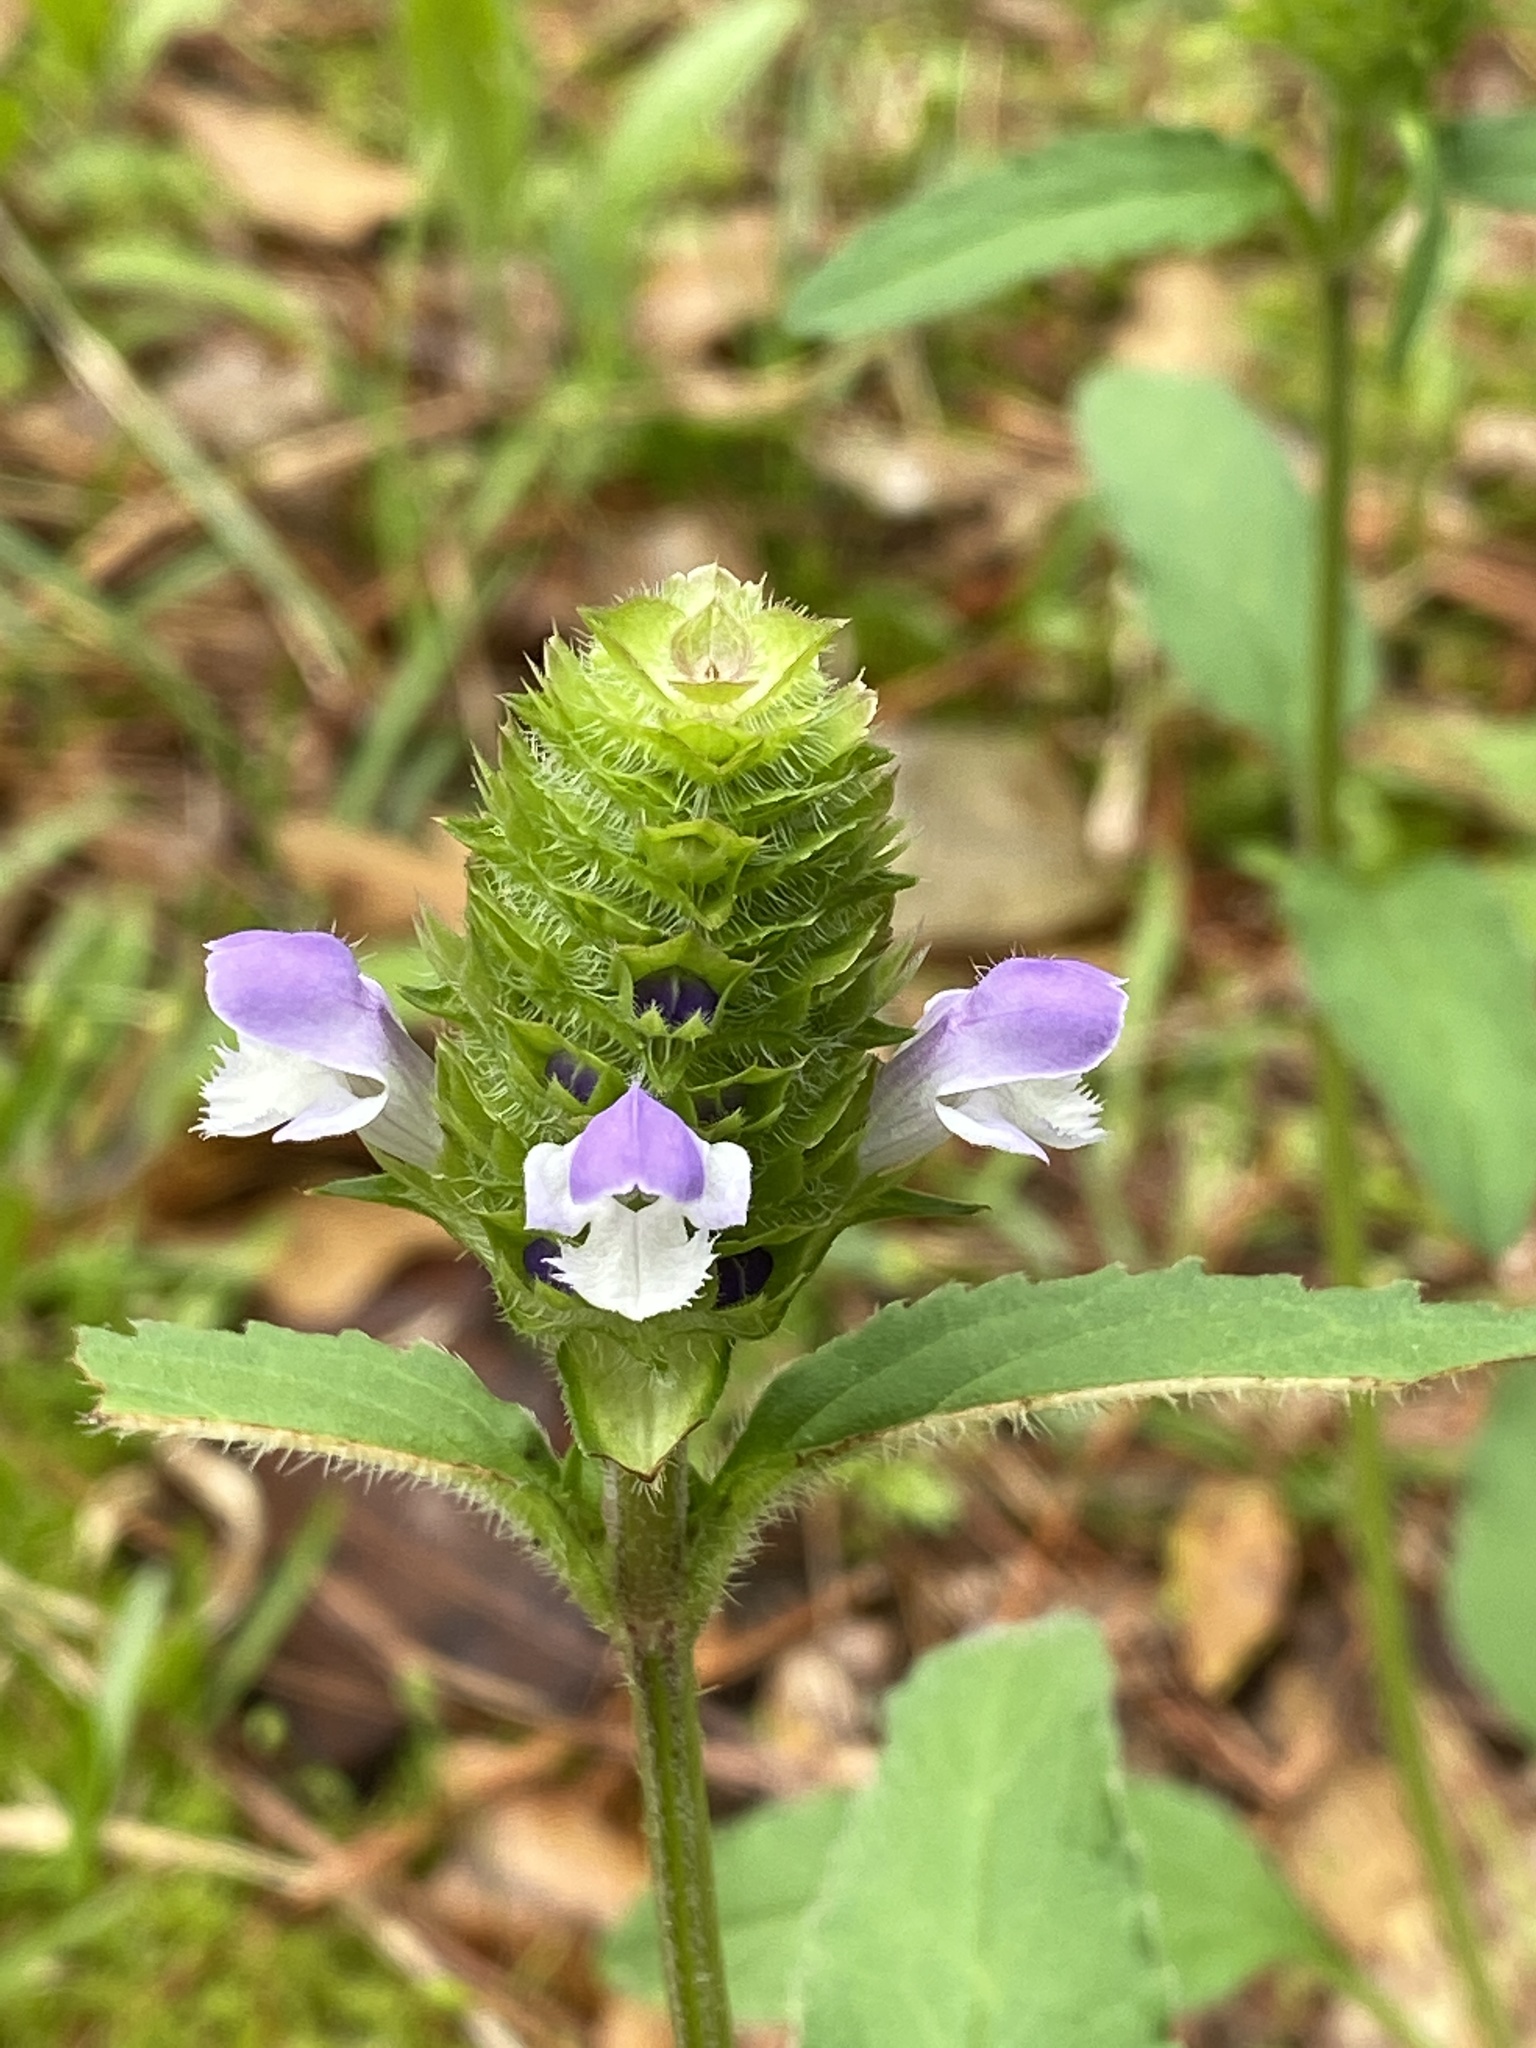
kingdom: Plantae
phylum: Tracheophyta
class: Magnoliopsida
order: Lamiales
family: Lamiaceae
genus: Prunella
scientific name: Prunella vulgaris
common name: Heal-all
